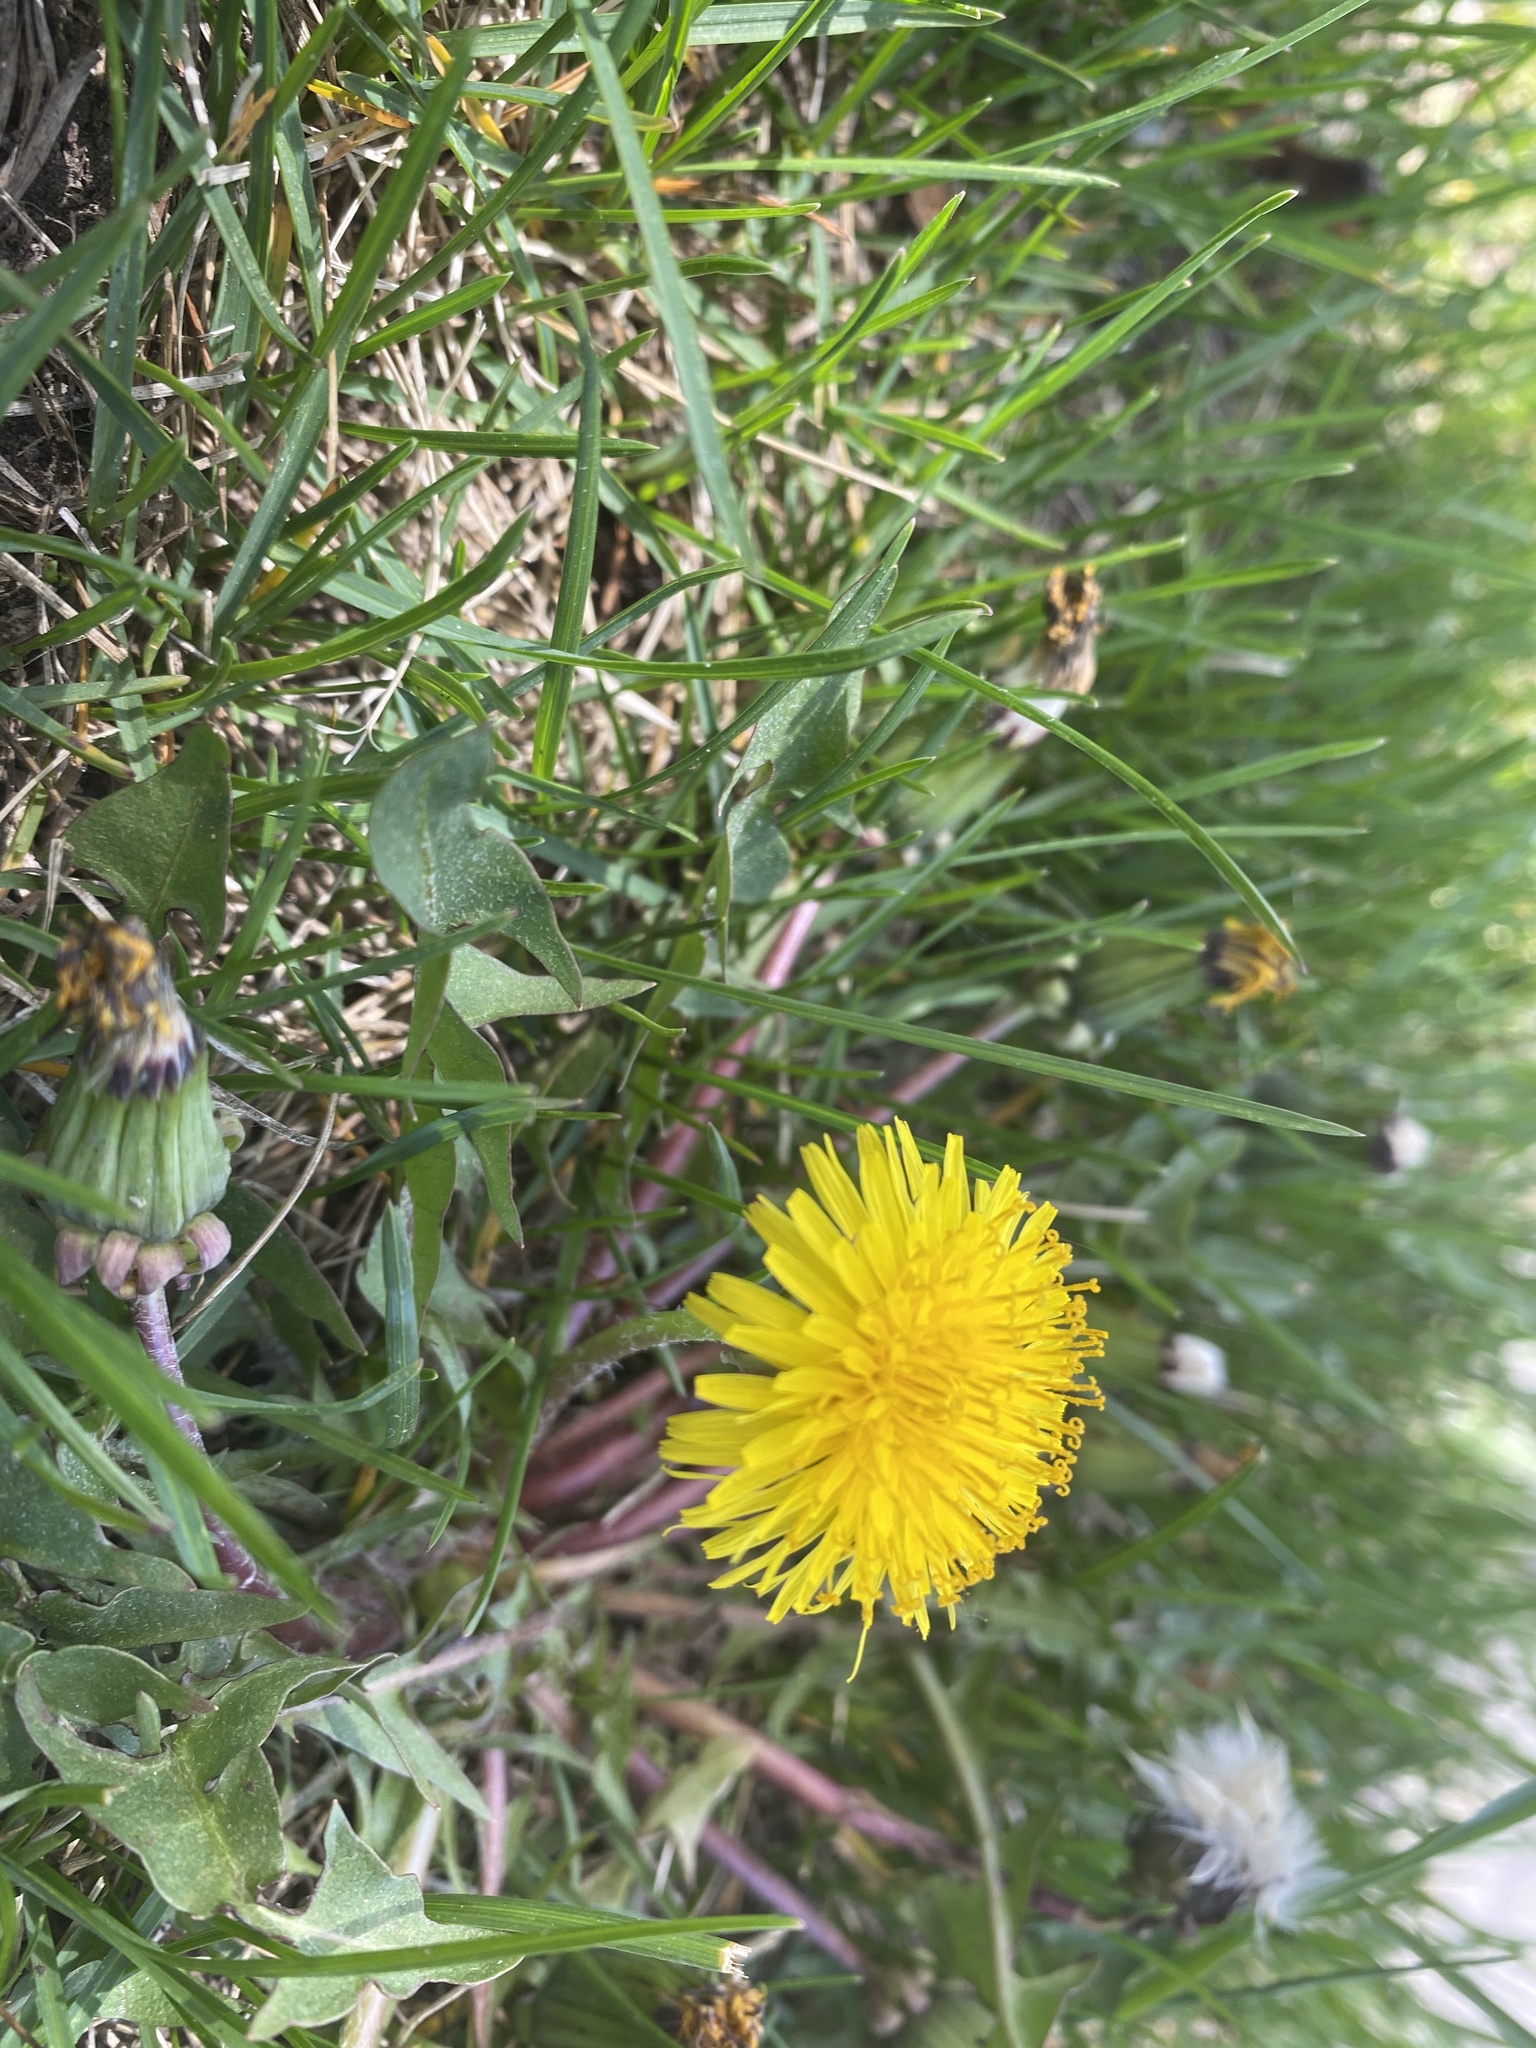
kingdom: Plantae
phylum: Tracheophyta
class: Magnoliopsida
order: Asterales
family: Asteraceae
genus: Taraxacum
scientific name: Taraxacum officinale
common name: Common dandelion
